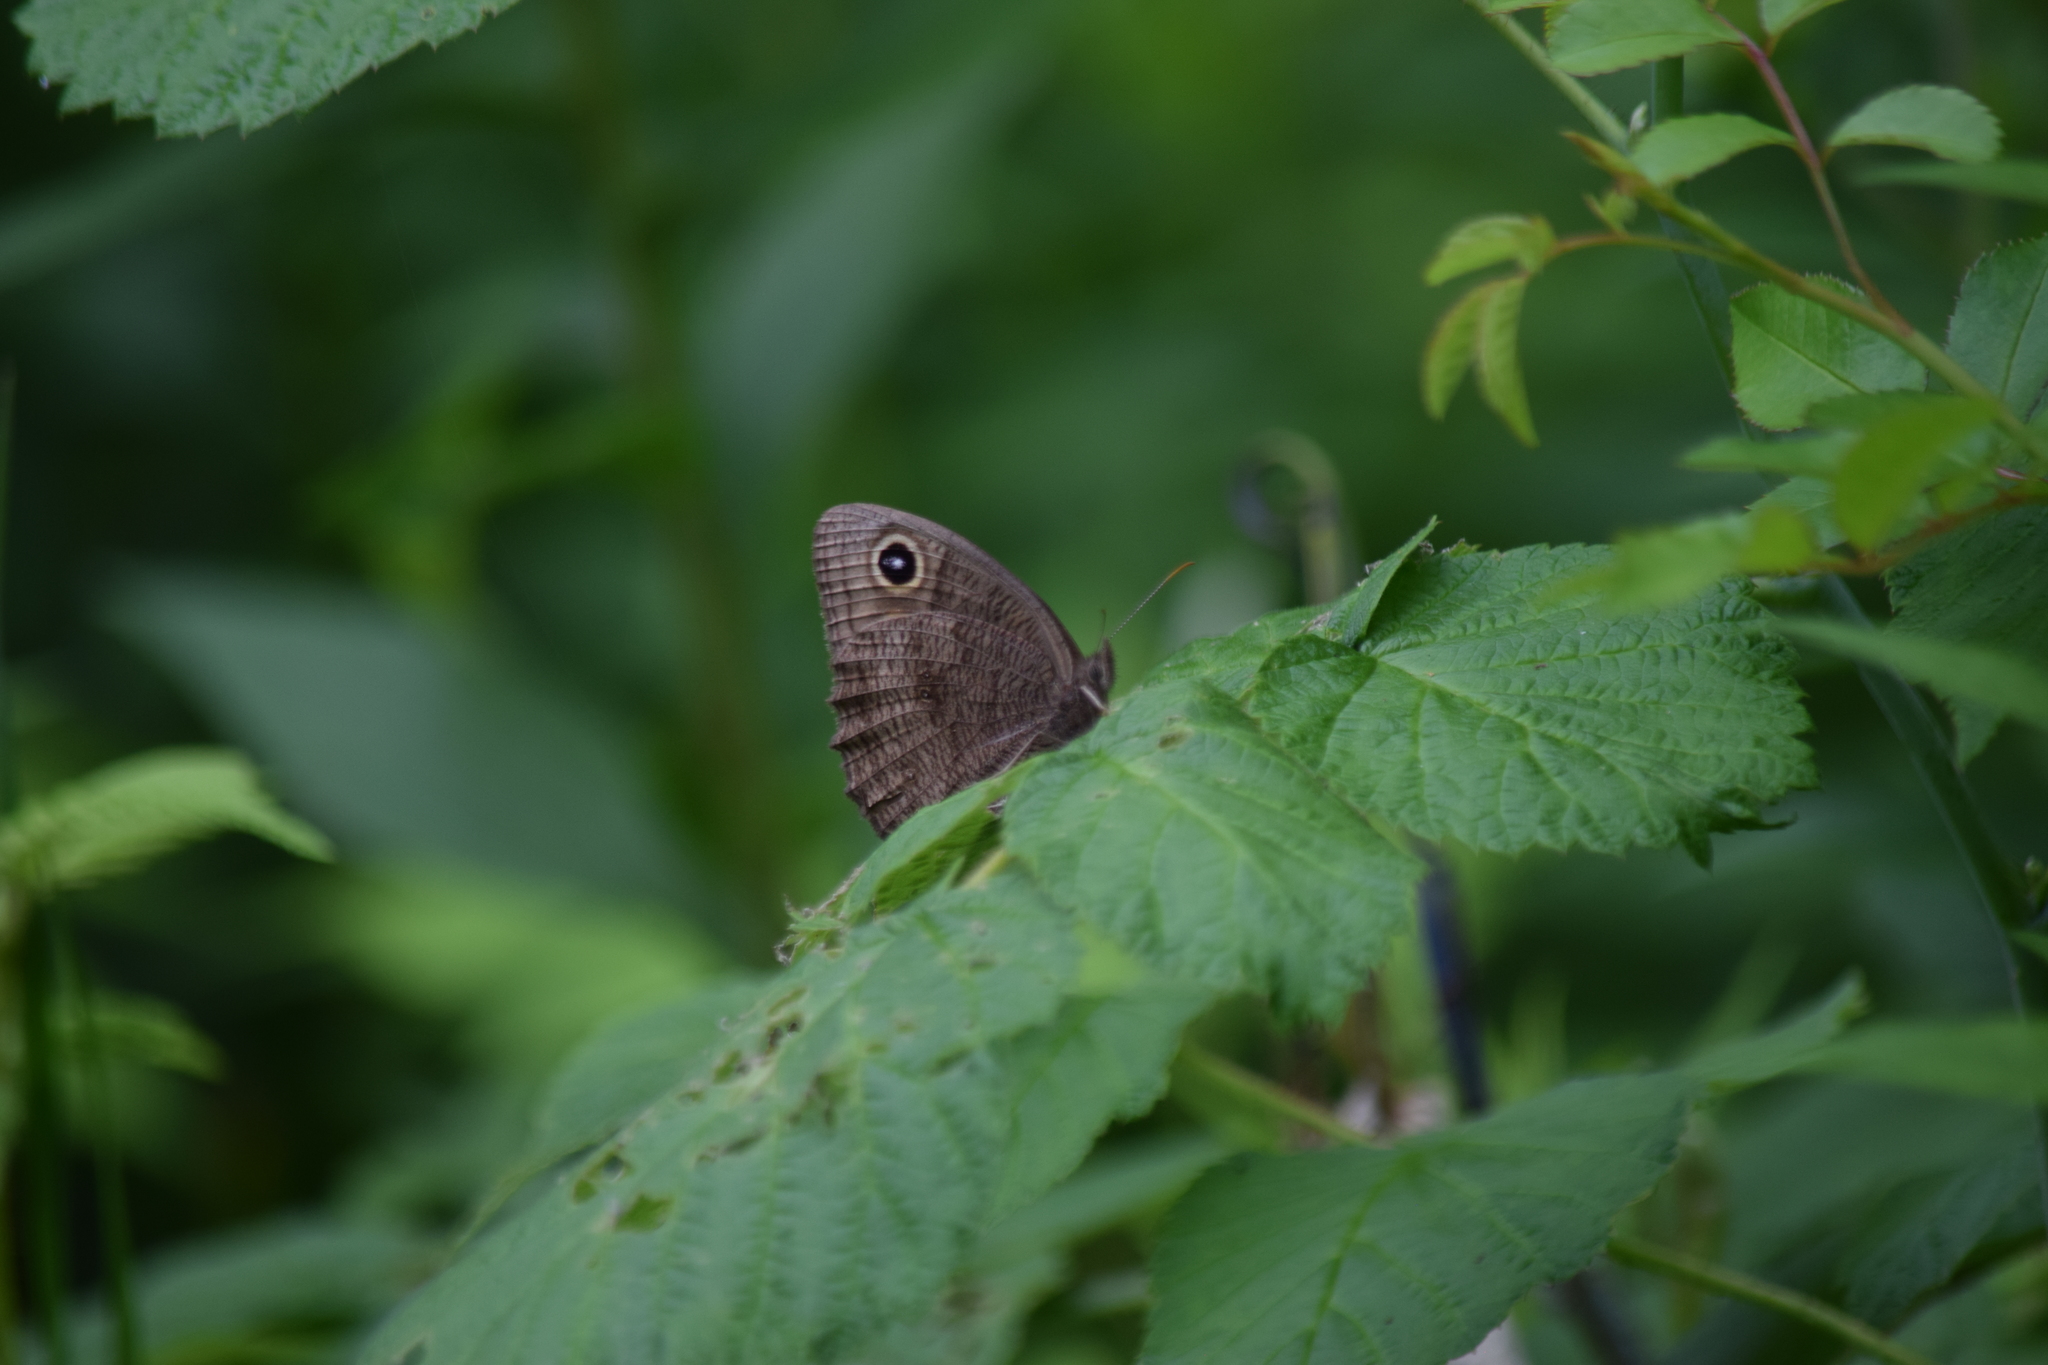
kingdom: Animalia
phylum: Arthropoda
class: Insecta
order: Lepidoptera
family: Nymphalidae
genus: Cercyonis
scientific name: Cercyonis pegala
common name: Common wood-nymph
